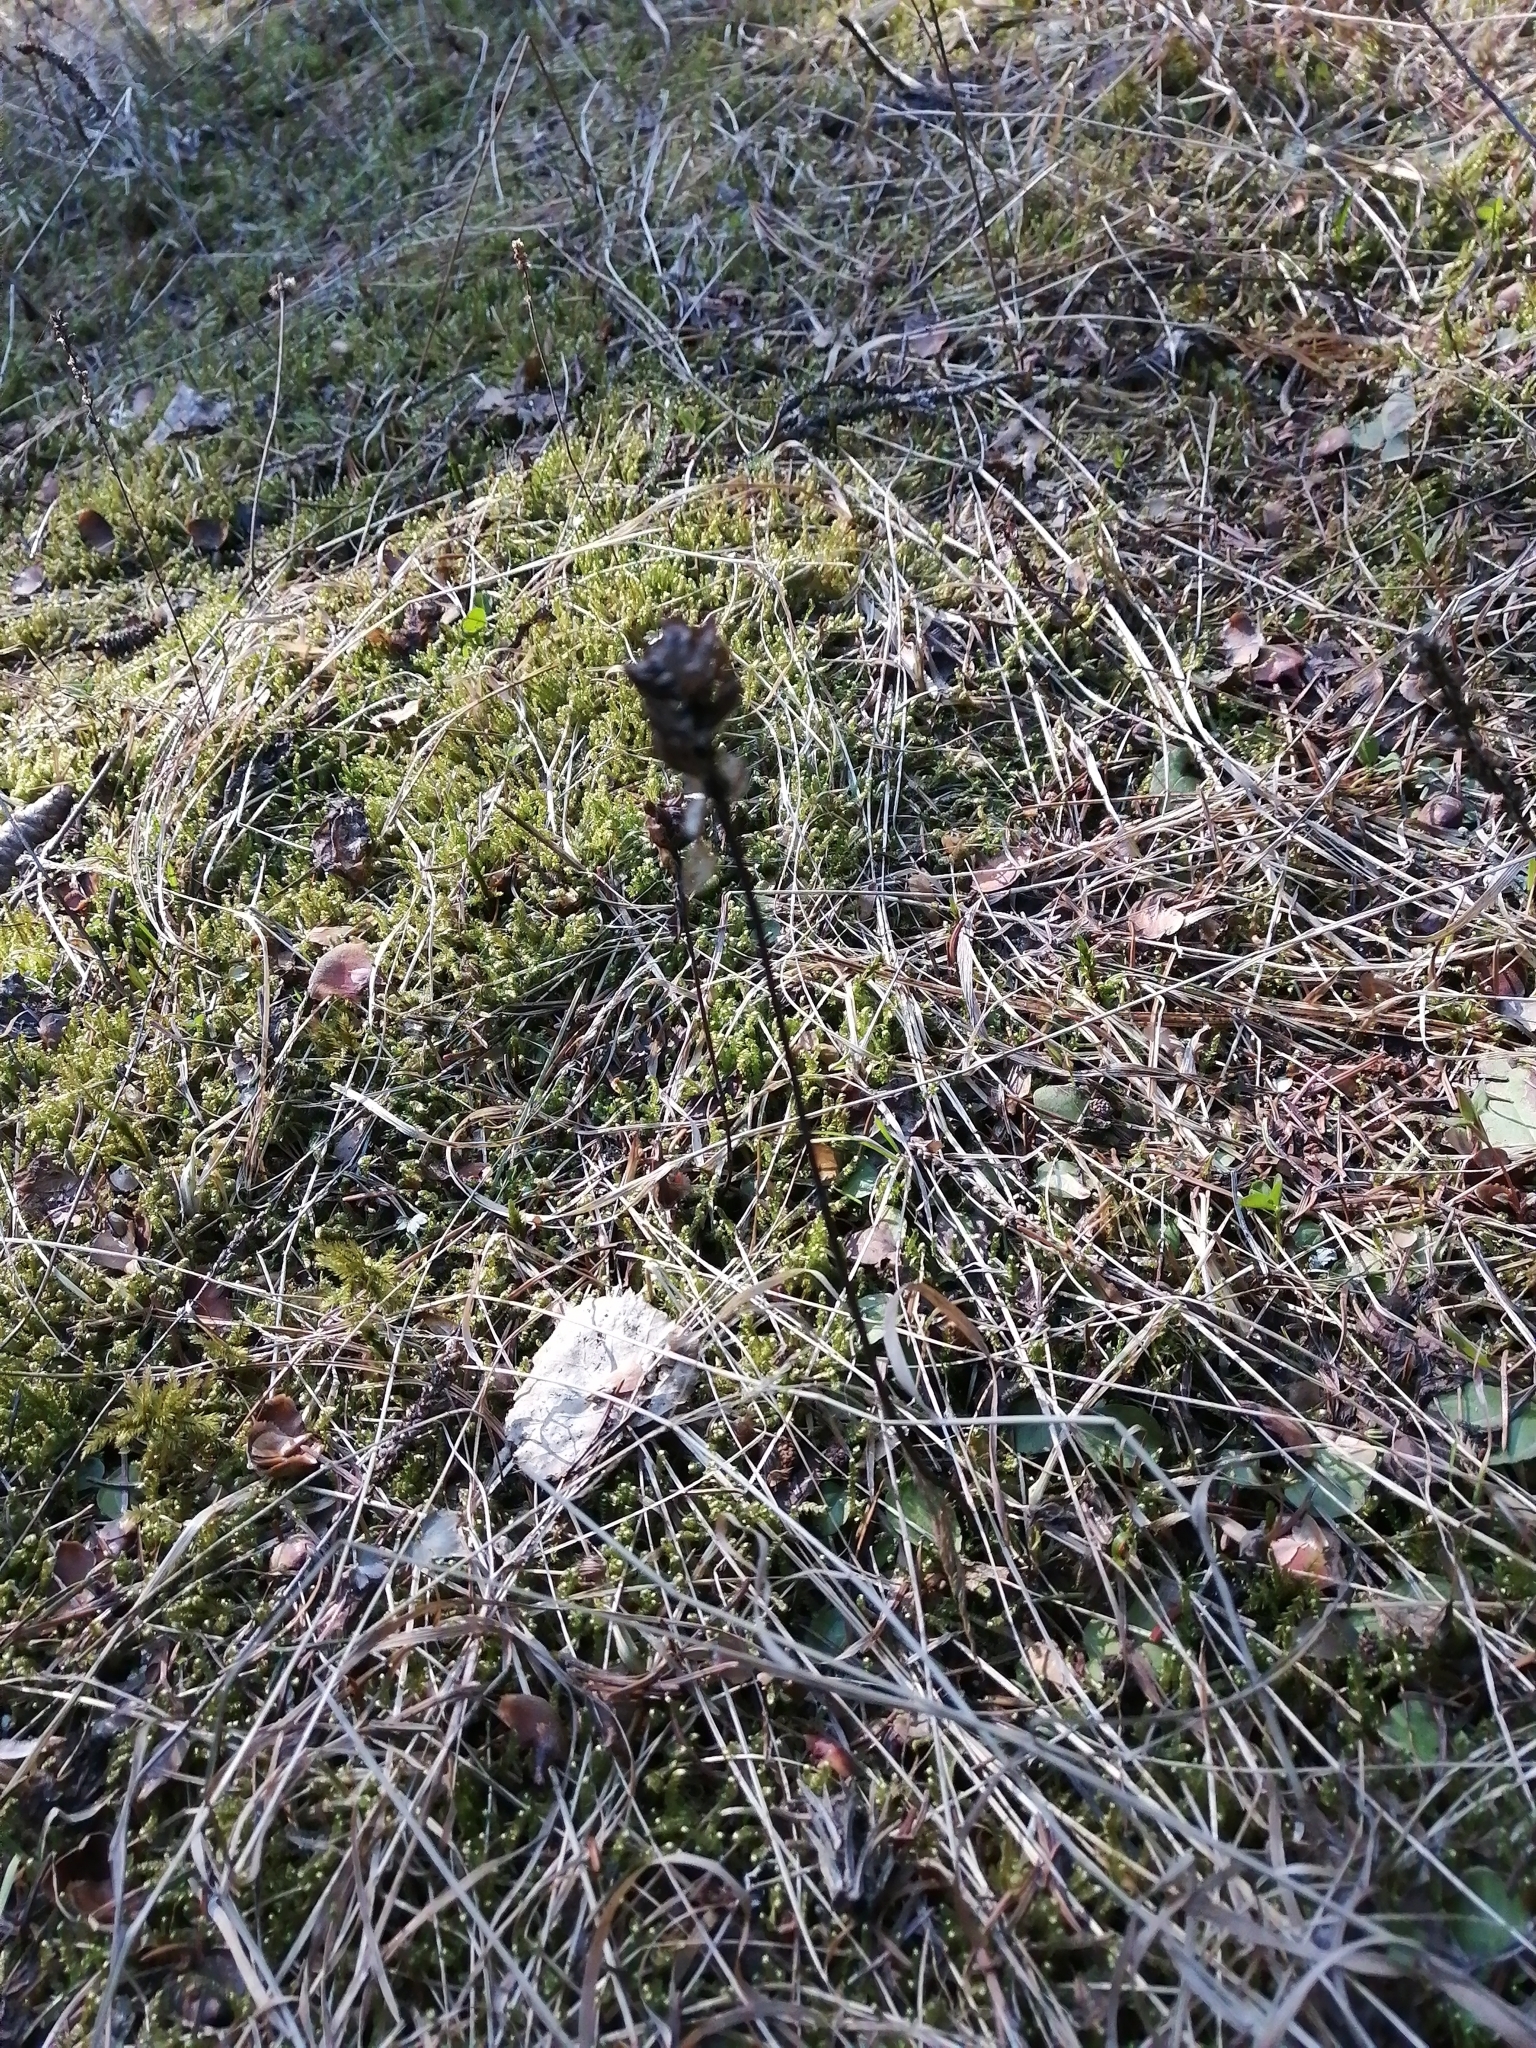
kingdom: Plantae
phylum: Tracheophyta
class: Magnoliopsida
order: Lamiales
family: Lamiaceae
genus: Prunella
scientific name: Prunella vulgaris
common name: Heal-all
